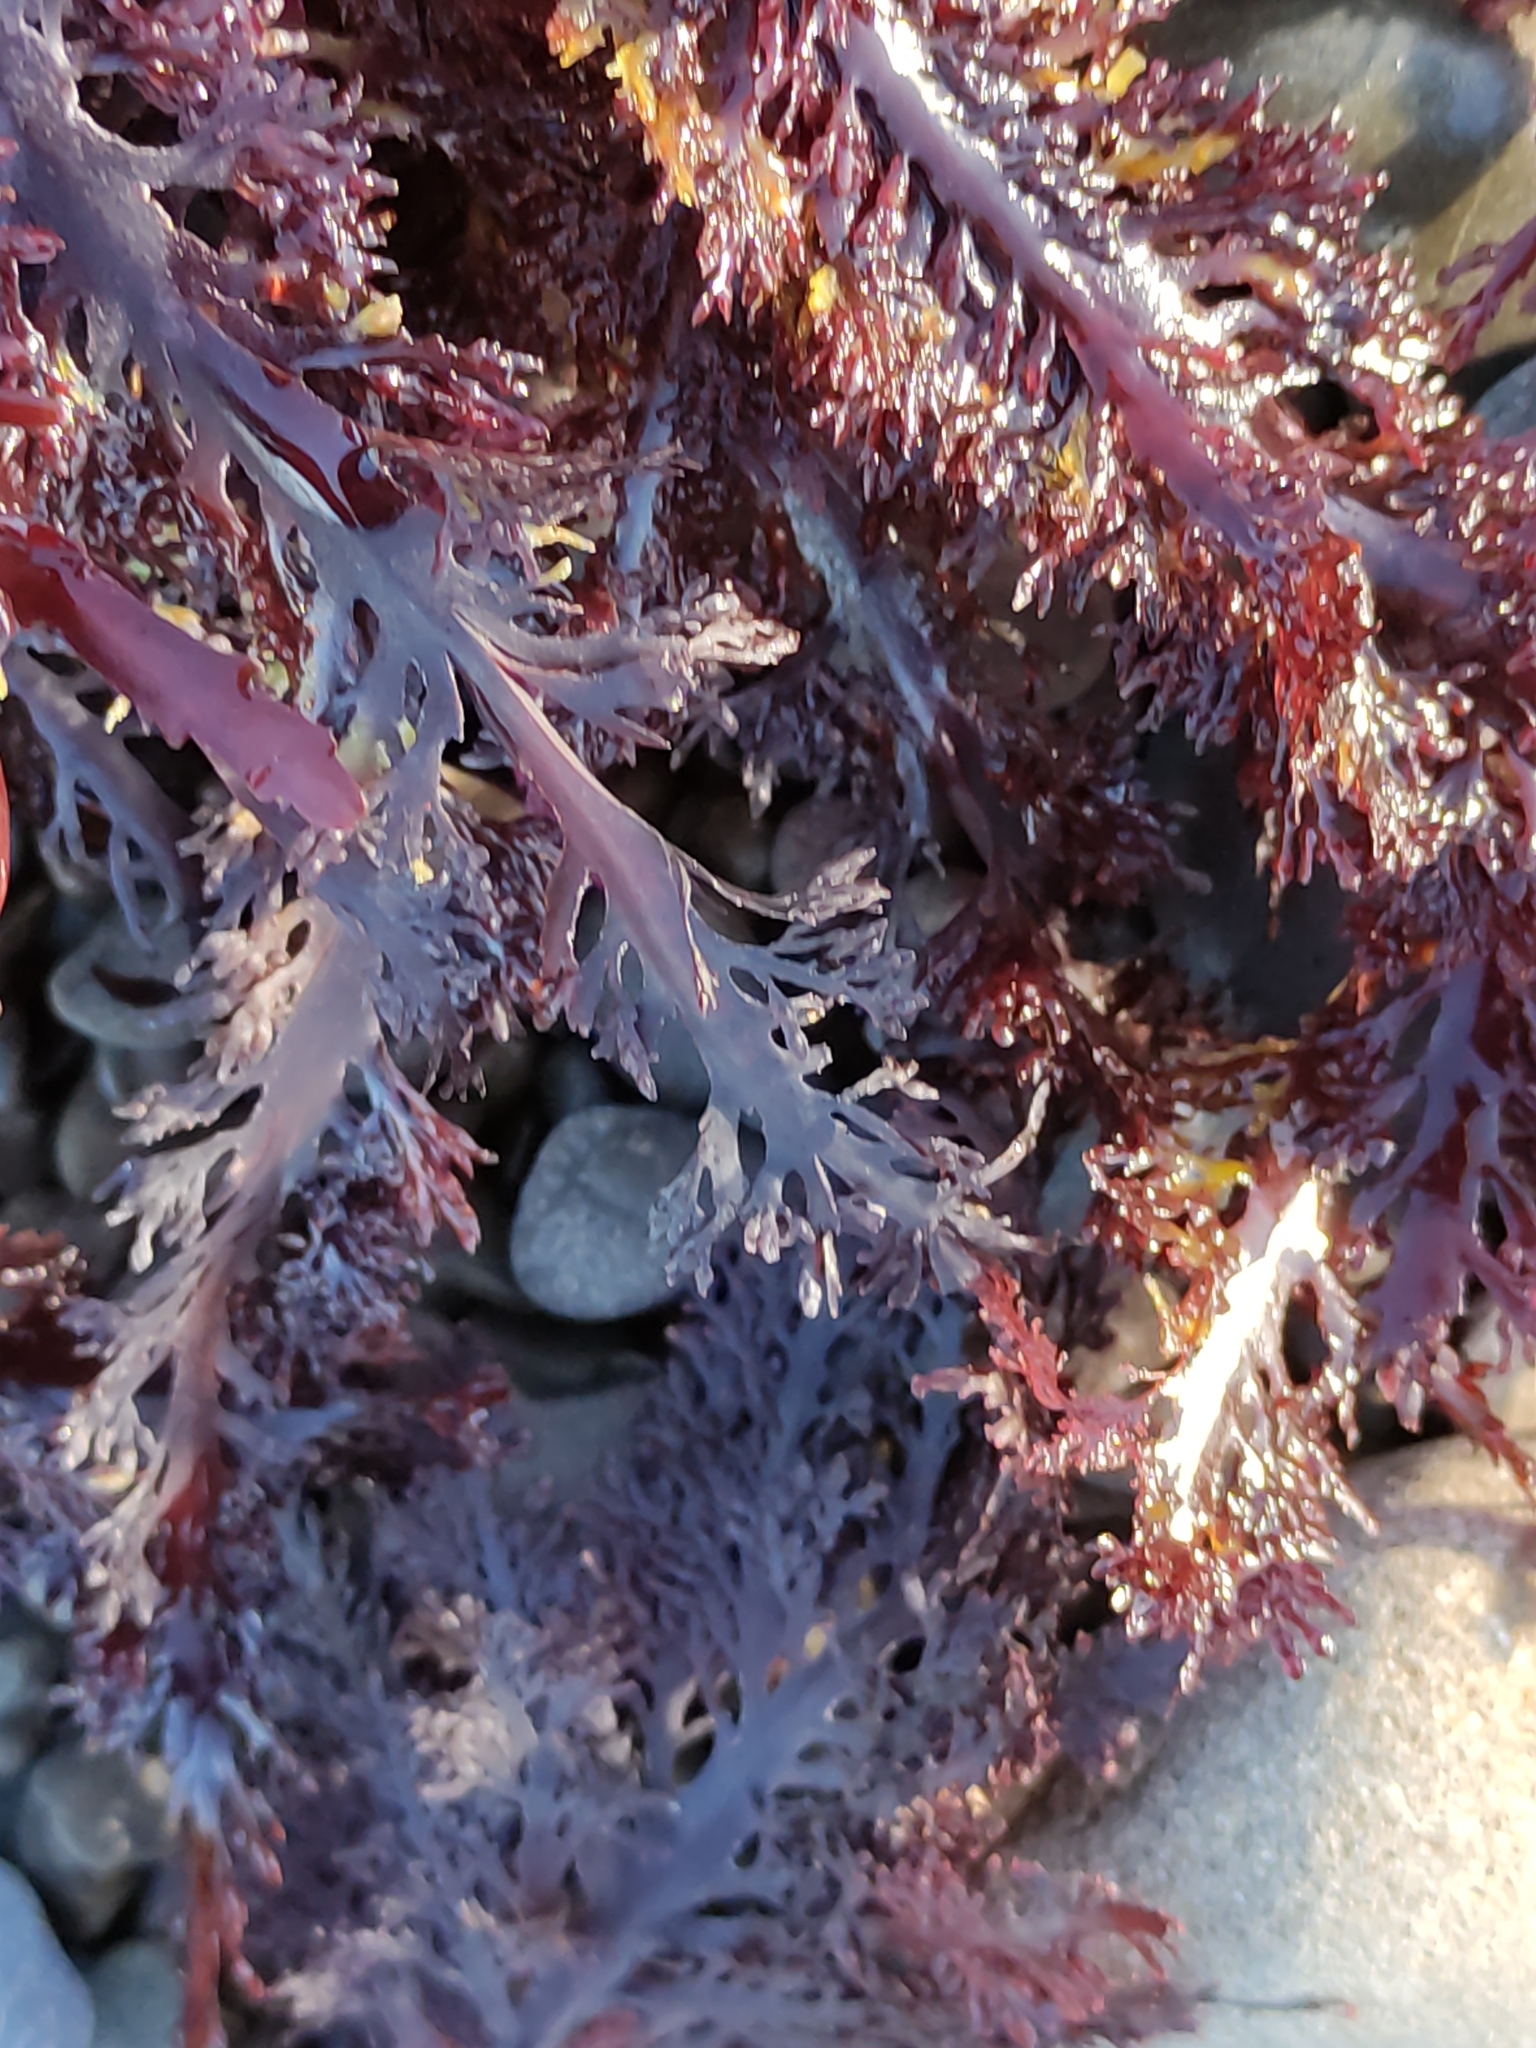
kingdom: Plantae
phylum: Rhodophyta
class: Florideophyceae
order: Gelidiales
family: Pterocladiaceae
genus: Pterocladia
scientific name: Pterocladia lucida
